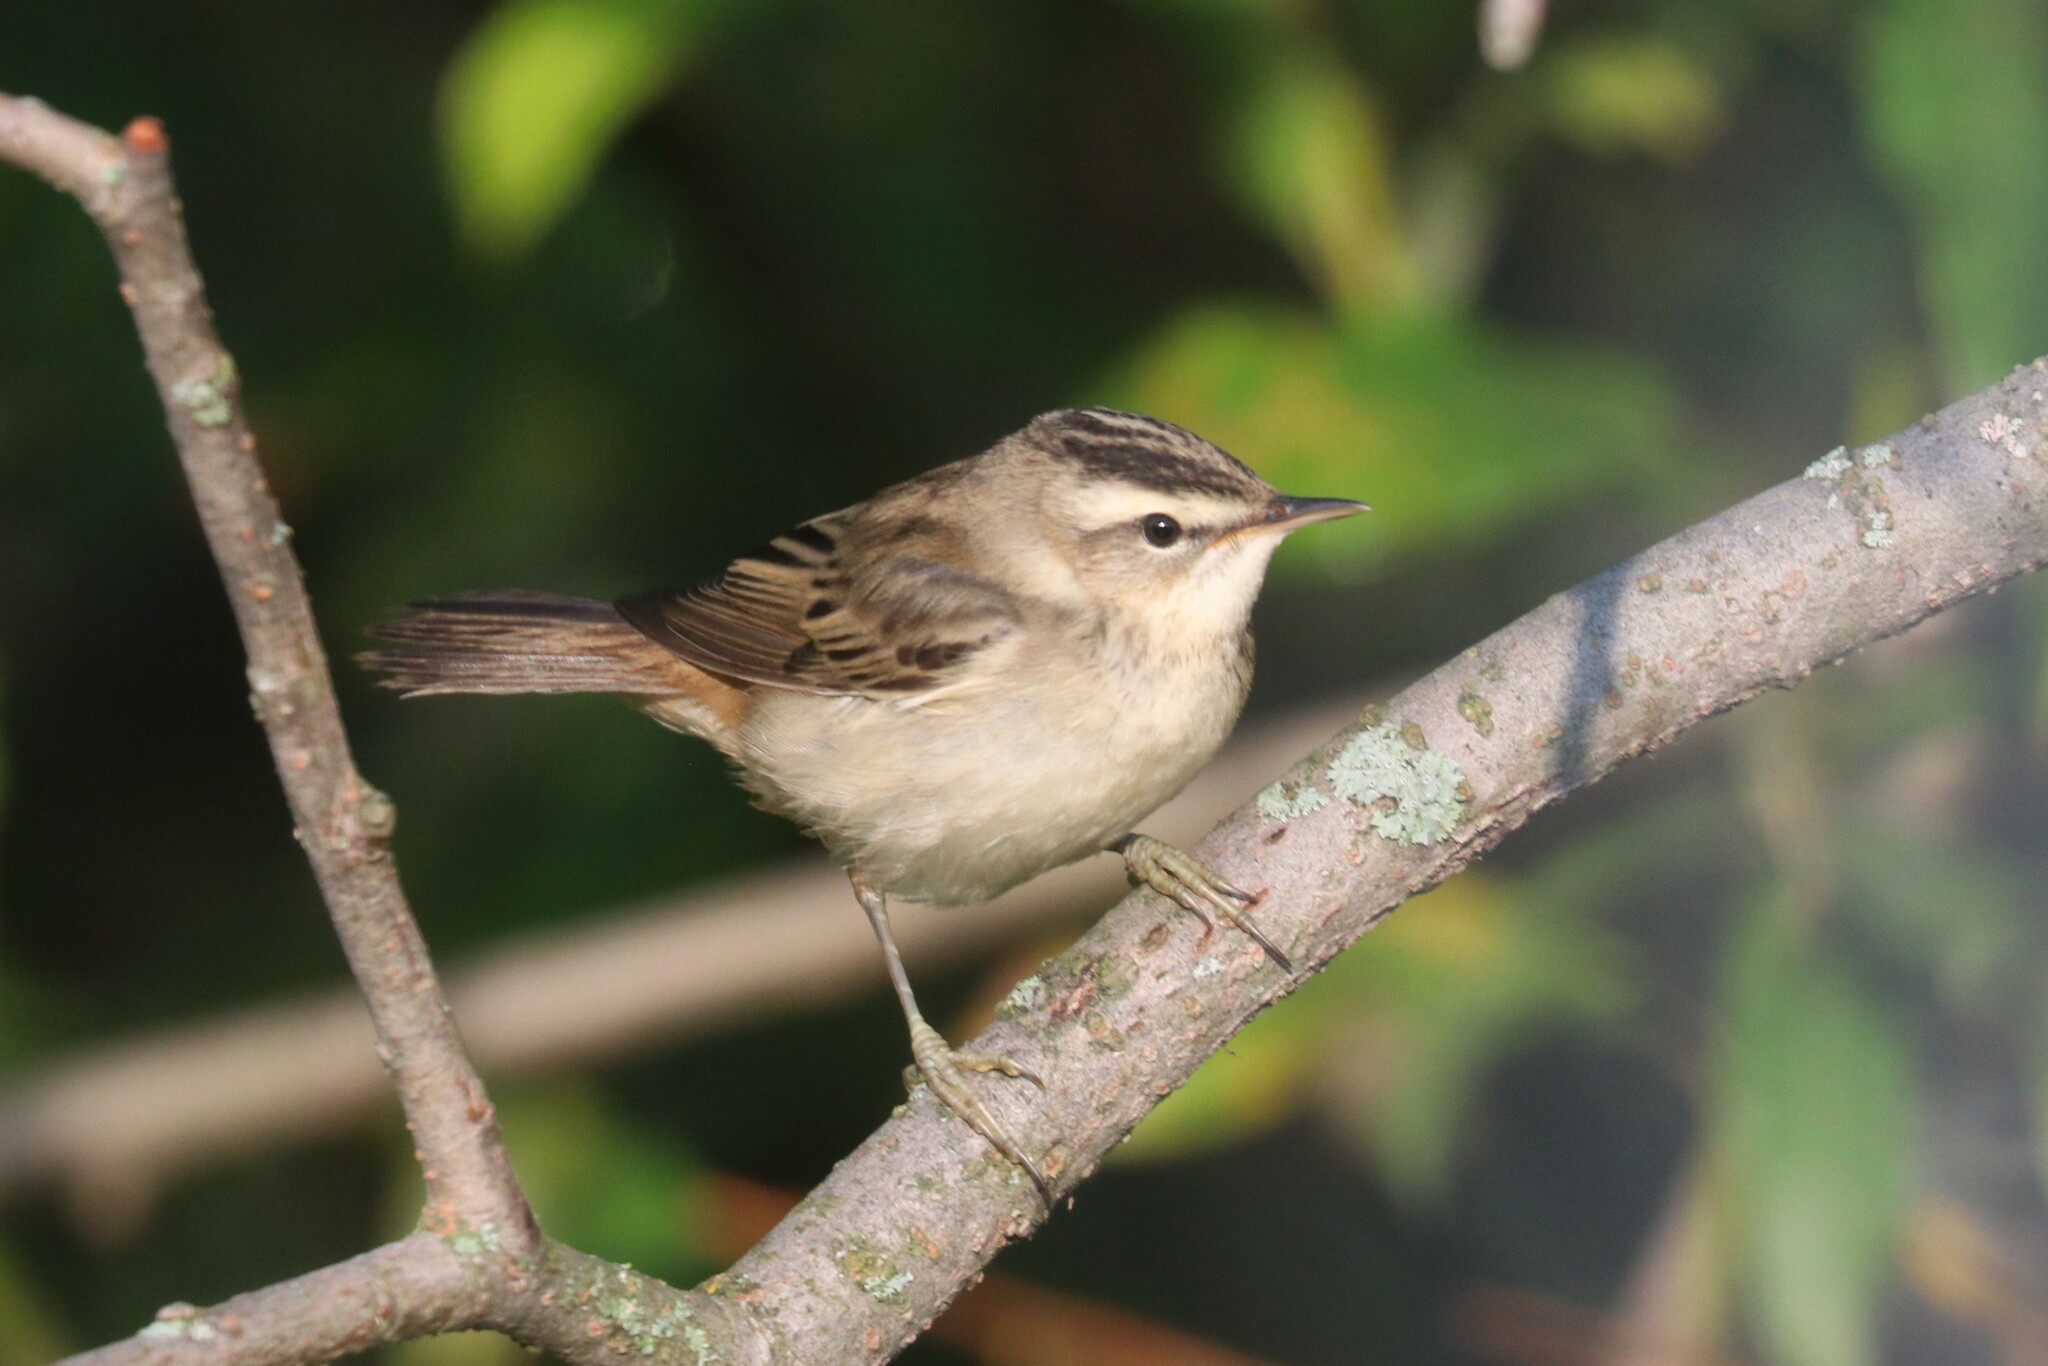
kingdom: Animalia
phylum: Chordata
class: Aves
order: Passeriformes
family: Acrocephalidae
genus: Acrocephalus
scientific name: Acrocephalus schoenobaenus
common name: Sedge warbler
